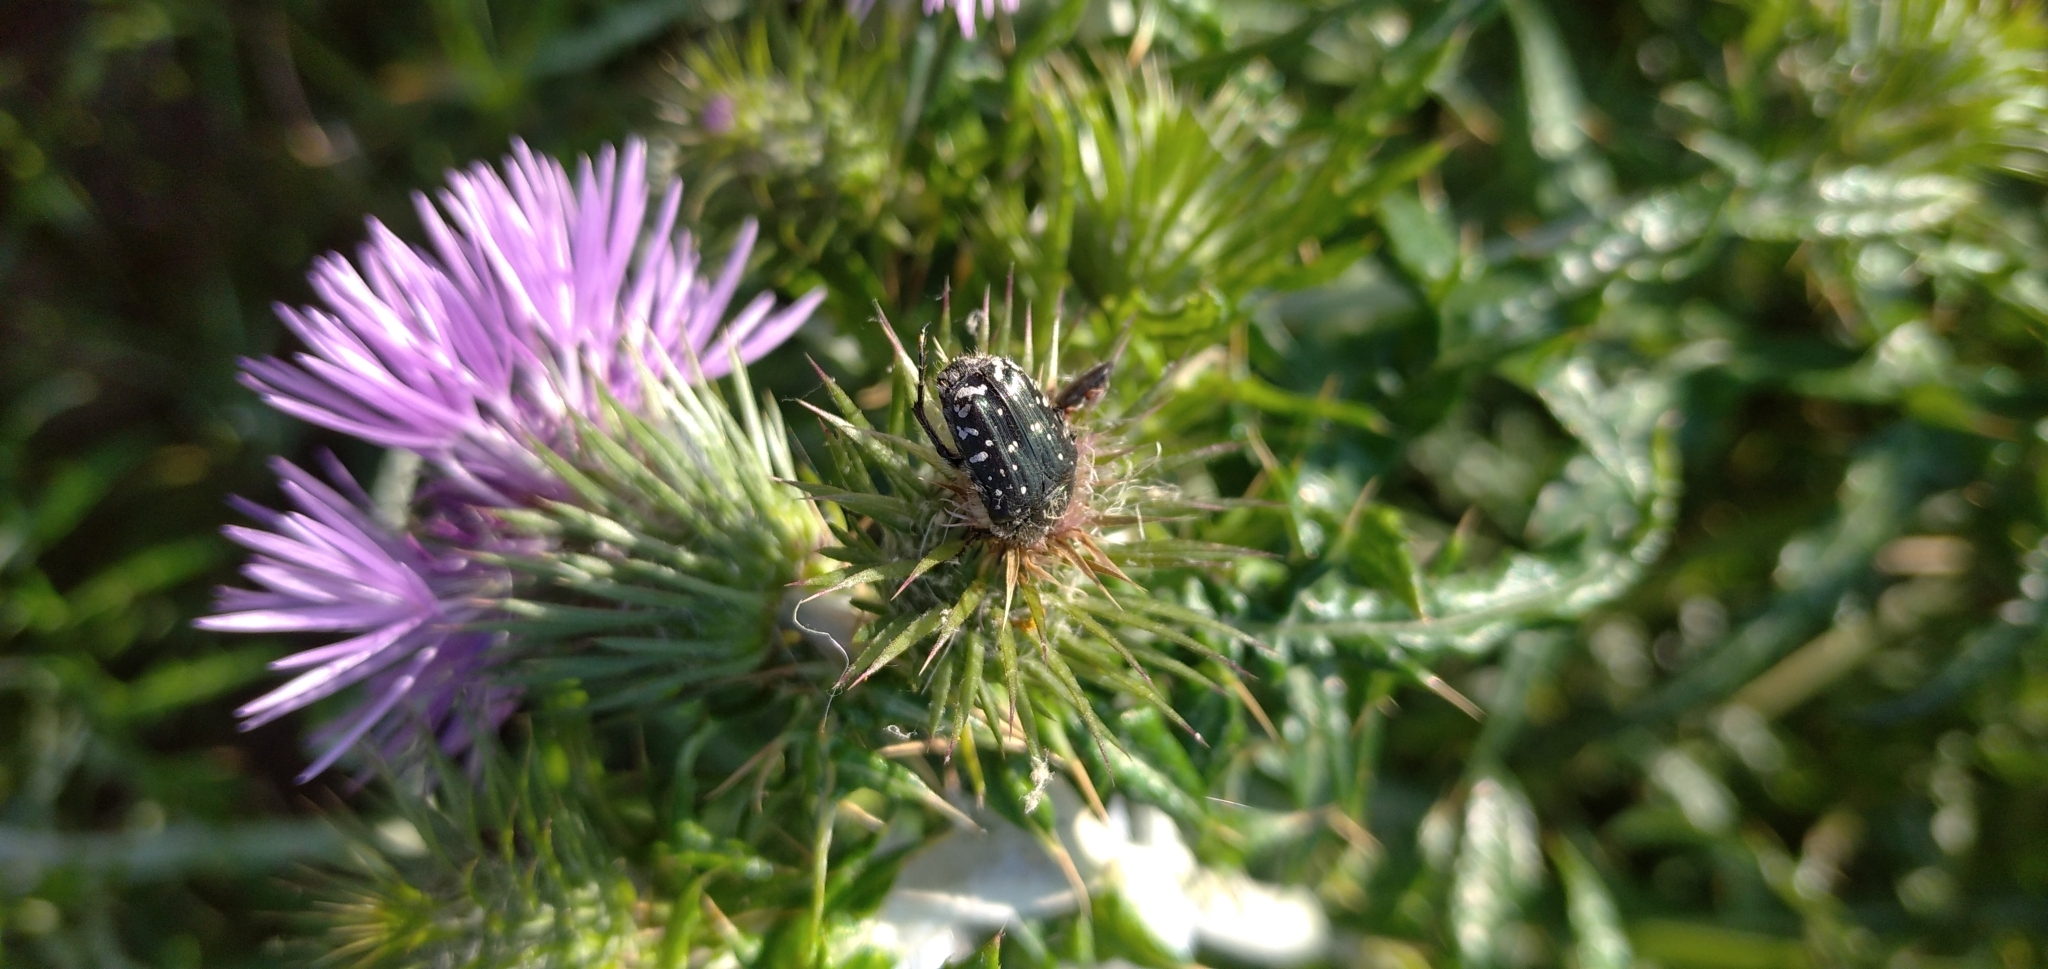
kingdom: Animalia
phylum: Arthropoda
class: Insecta
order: Coleoptera
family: Scarabaeidae
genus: Oxythyrea
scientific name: Oxythyrea funesta
